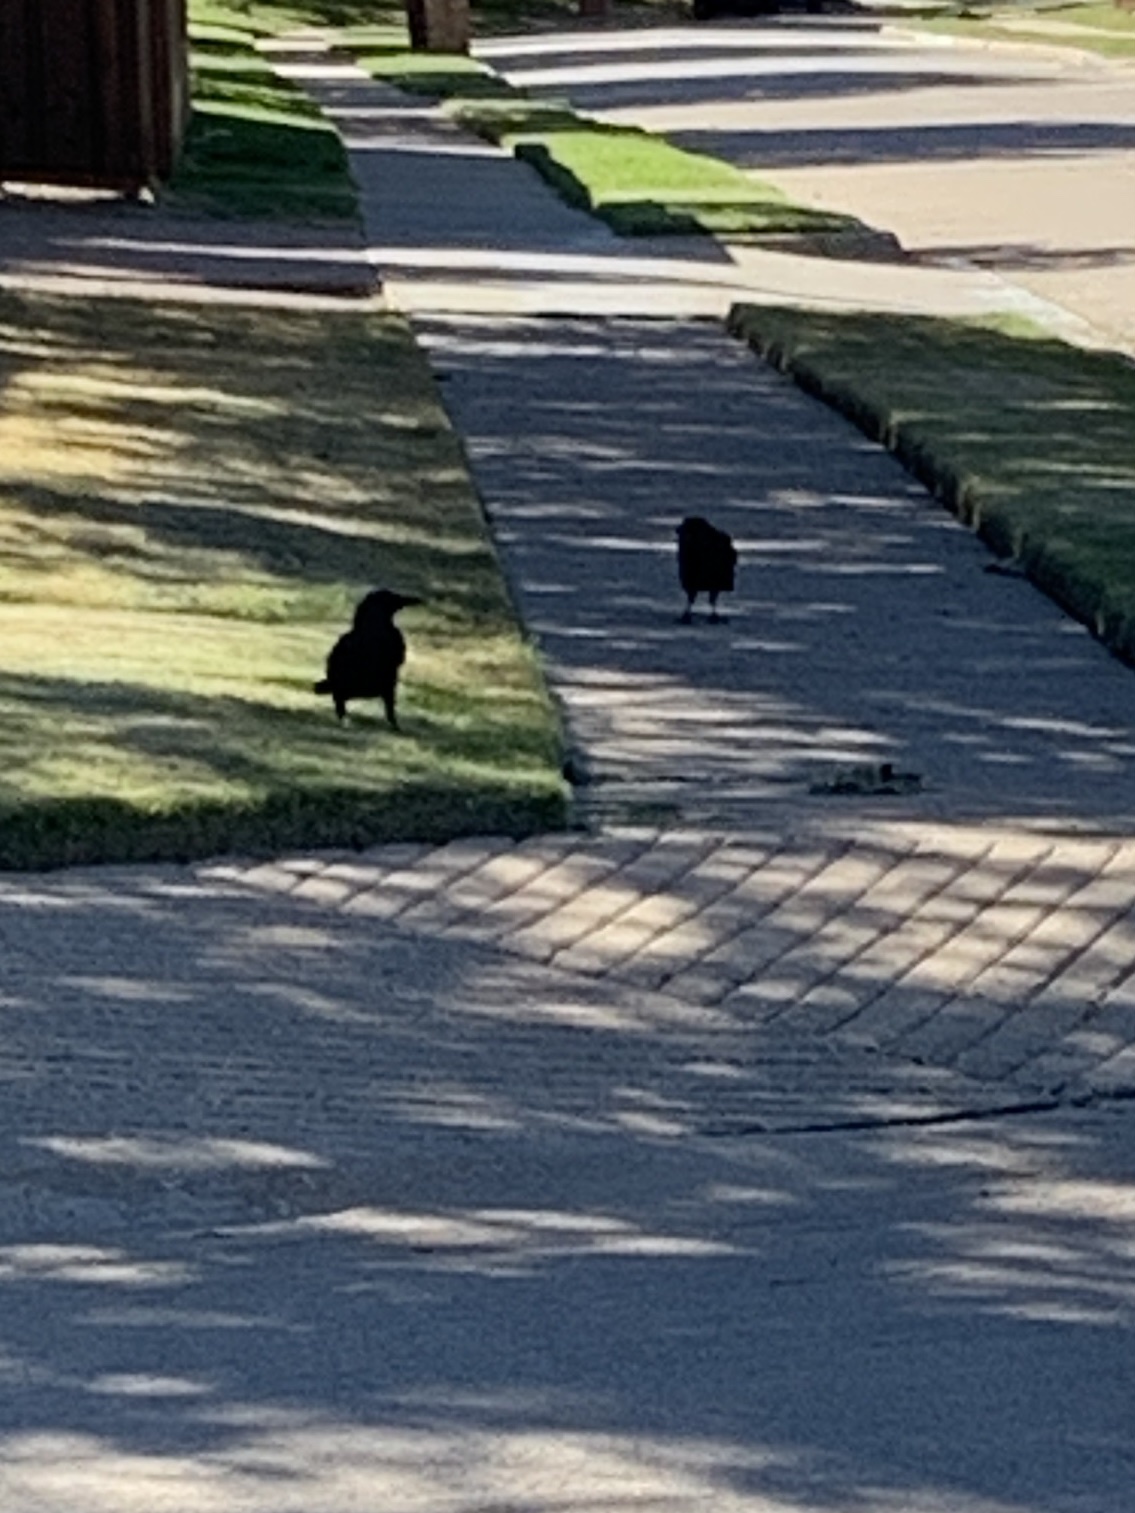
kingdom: Animalia
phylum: Chordata
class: Aves
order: Passeriformes
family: Corvidae
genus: Corvus
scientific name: Corvus brachyrhynchos
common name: American crow
